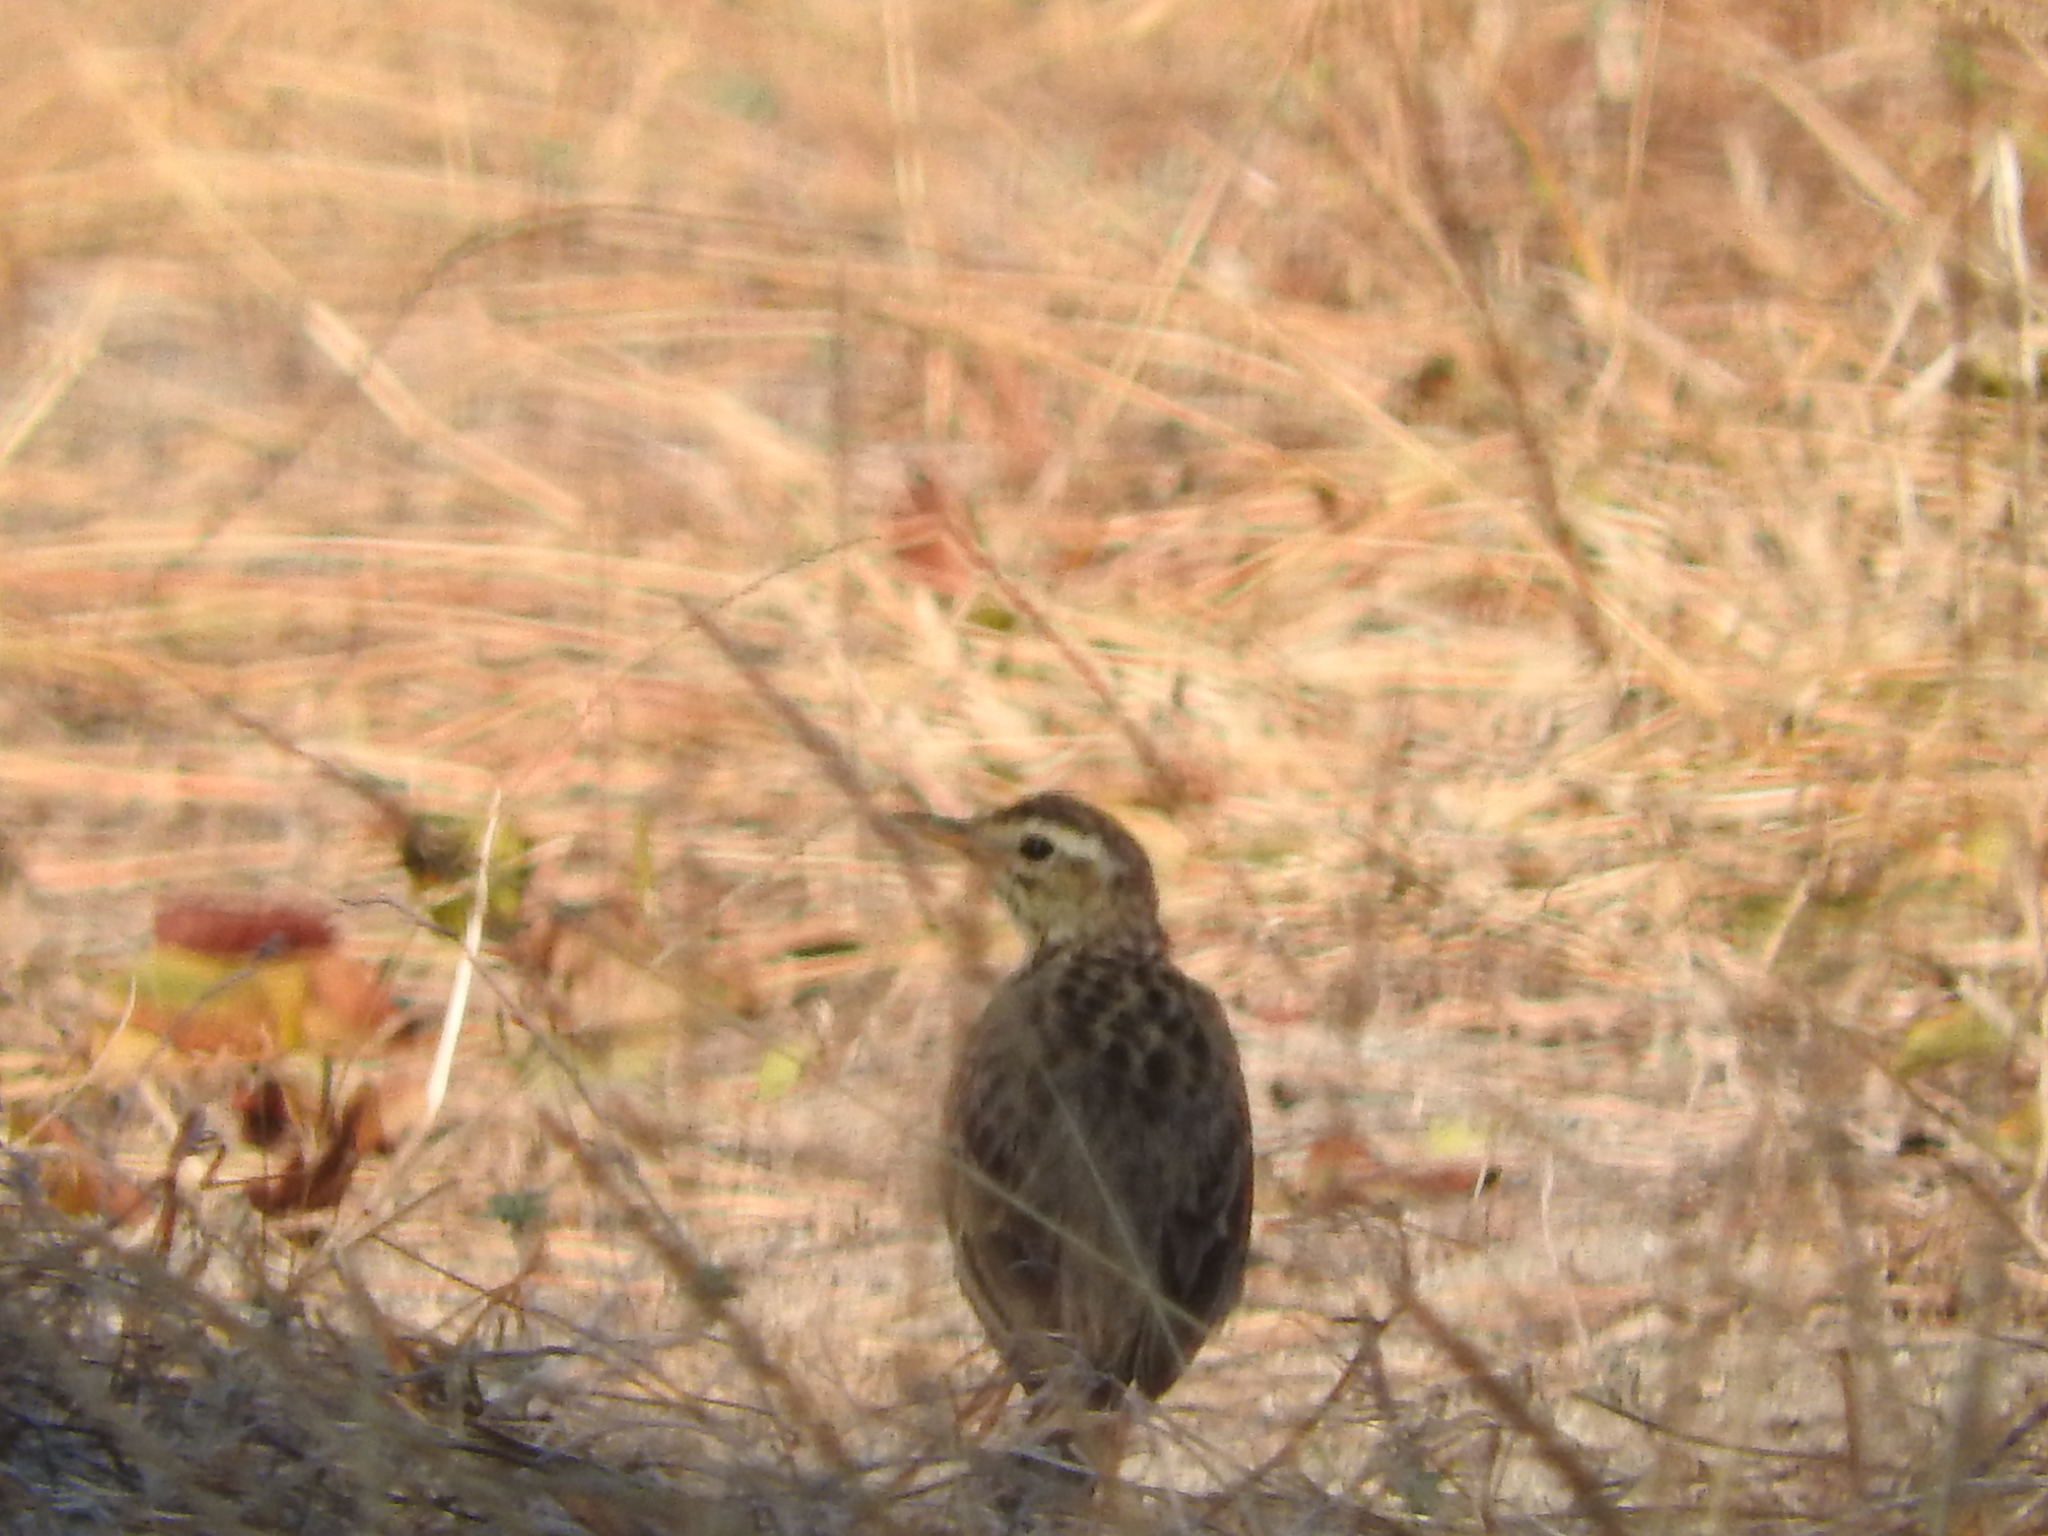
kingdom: Animalia
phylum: Chordata
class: Aves
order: Passeriformes
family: Motacillidae
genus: Anthus
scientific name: Anthus cinnamomeus
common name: African pipit
